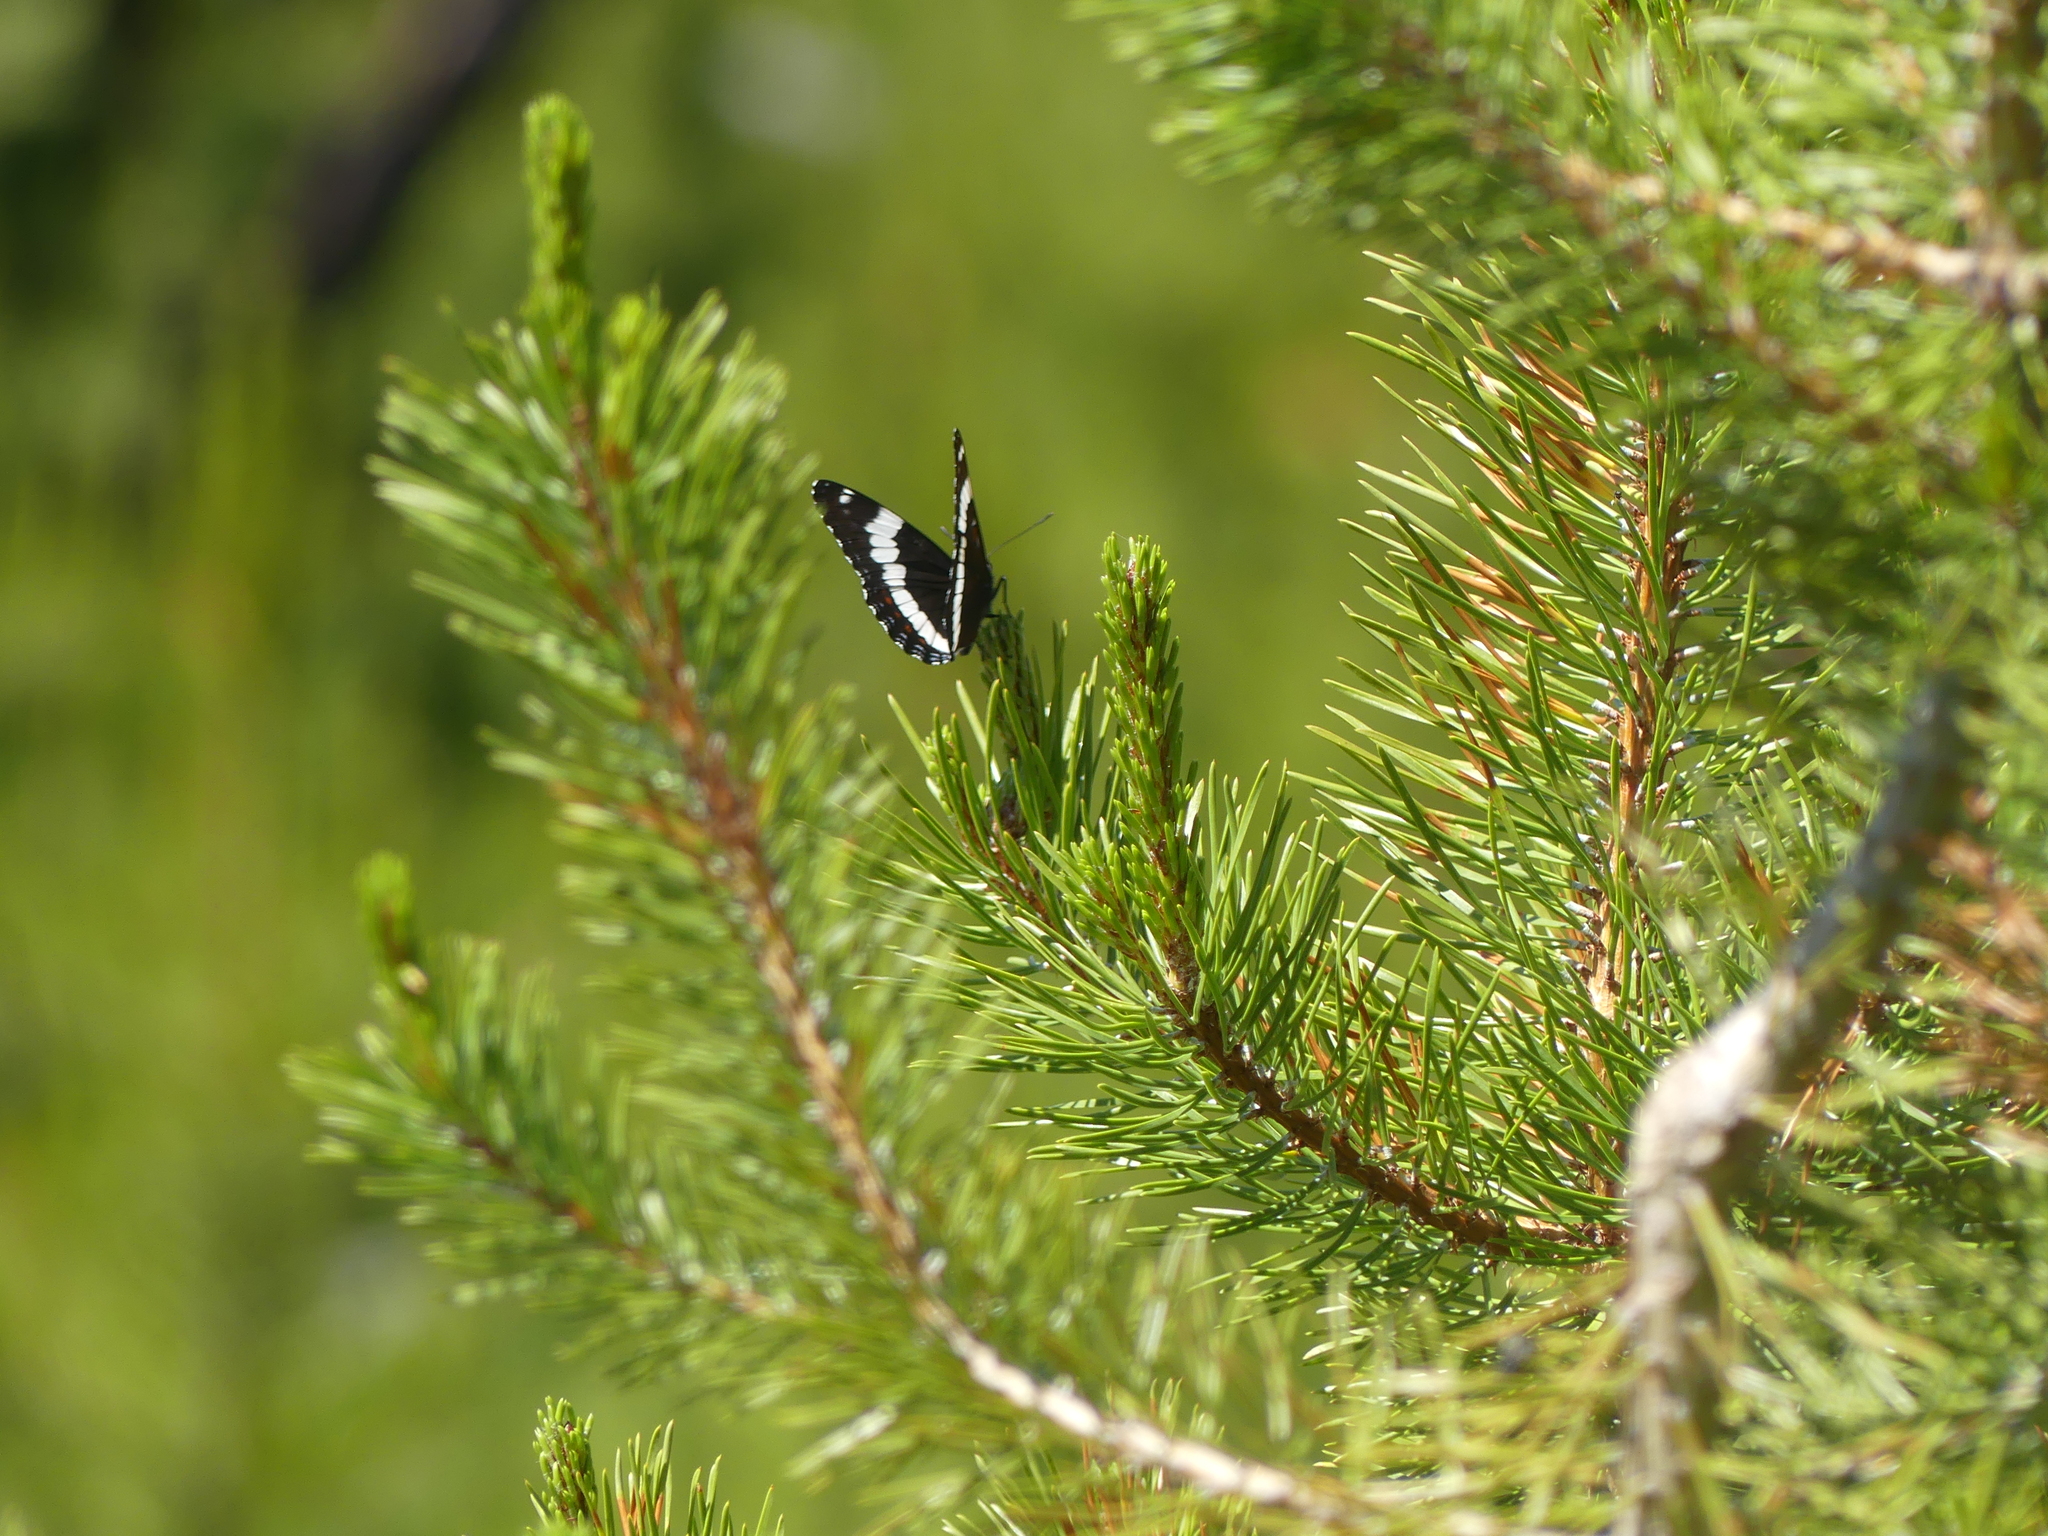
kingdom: Animalia
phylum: Arthropoda
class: Insecta
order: Lepidoptera
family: Nymphalidae
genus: Limenitis
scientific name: Limenitis arthemis
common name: Red-spotted admiral
